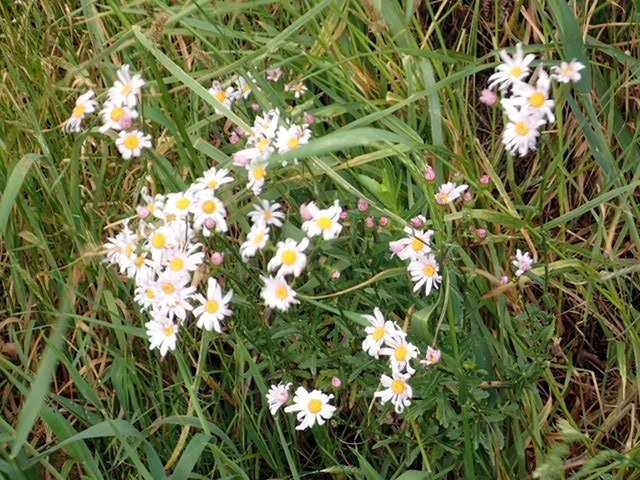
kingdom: Plantae
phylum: Tracheophyta
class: Magnoliopsida
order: Asterales
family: Asteraceae
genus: Senecio
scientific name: Senecio glastifolius
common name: Woad-leaved ragwort
